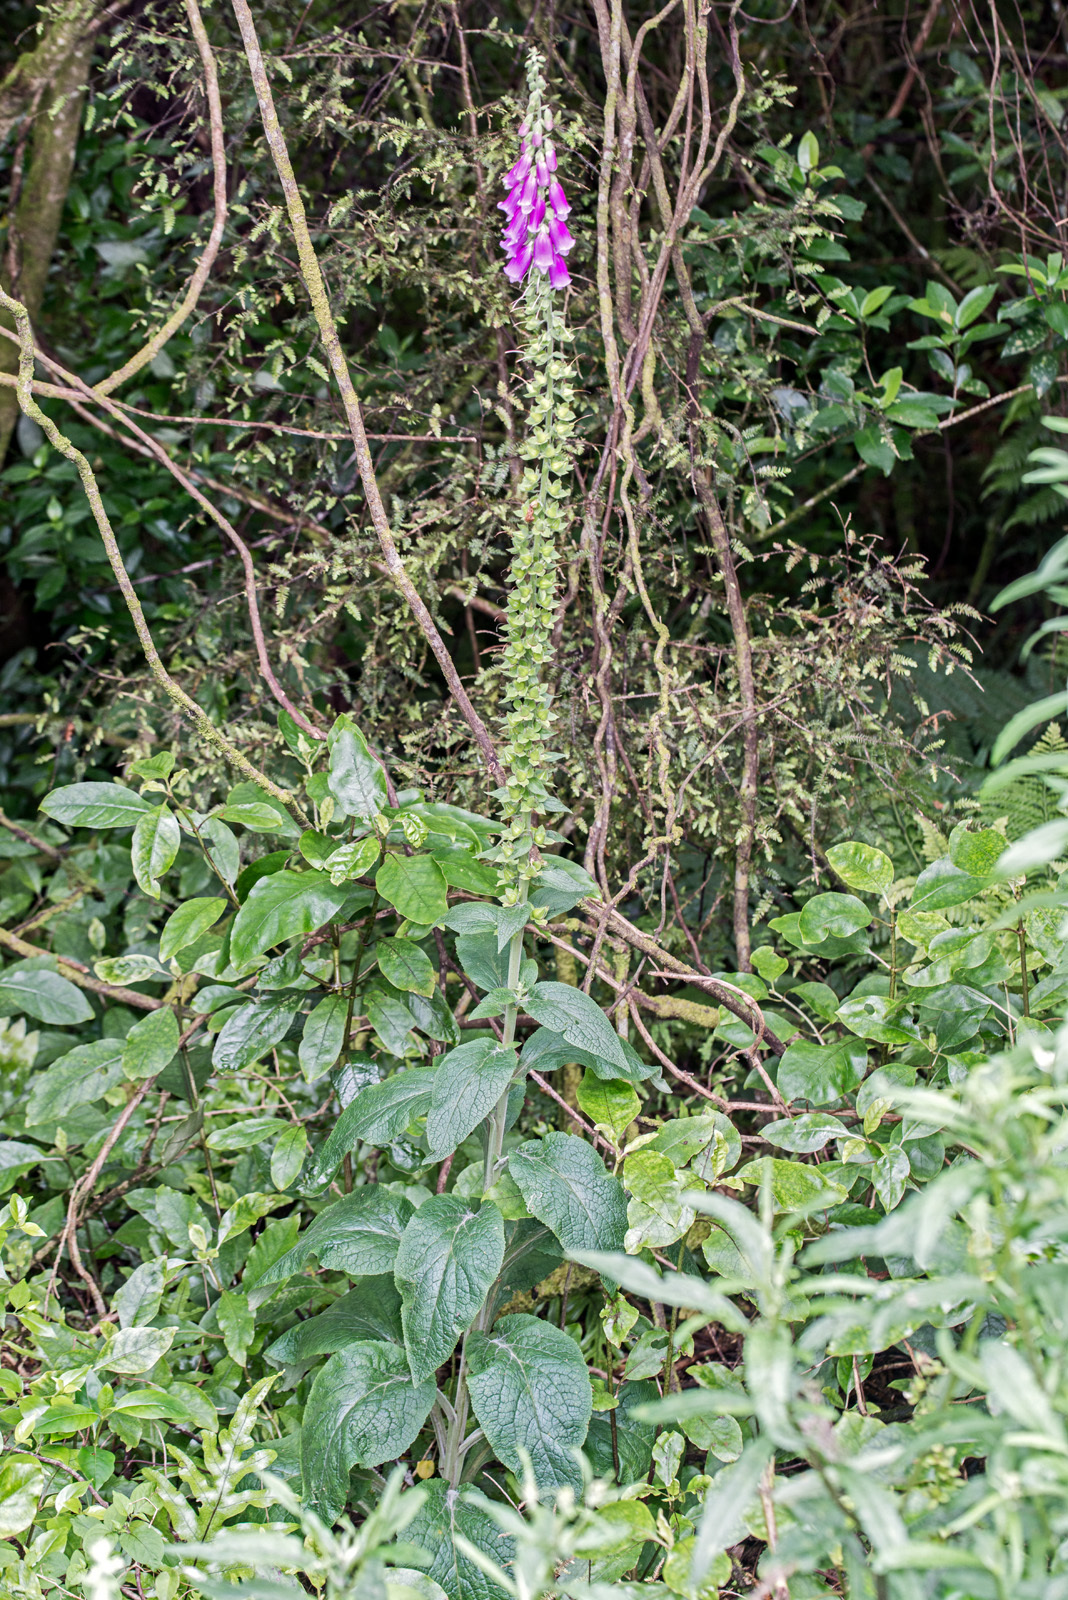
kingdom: Plantae
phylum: Tracheophyta
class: Magnoliopsida
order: Lamiales
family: Plantaginaceae
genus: Digitalis
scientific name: Digitalis purpurea
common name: Foxglove
